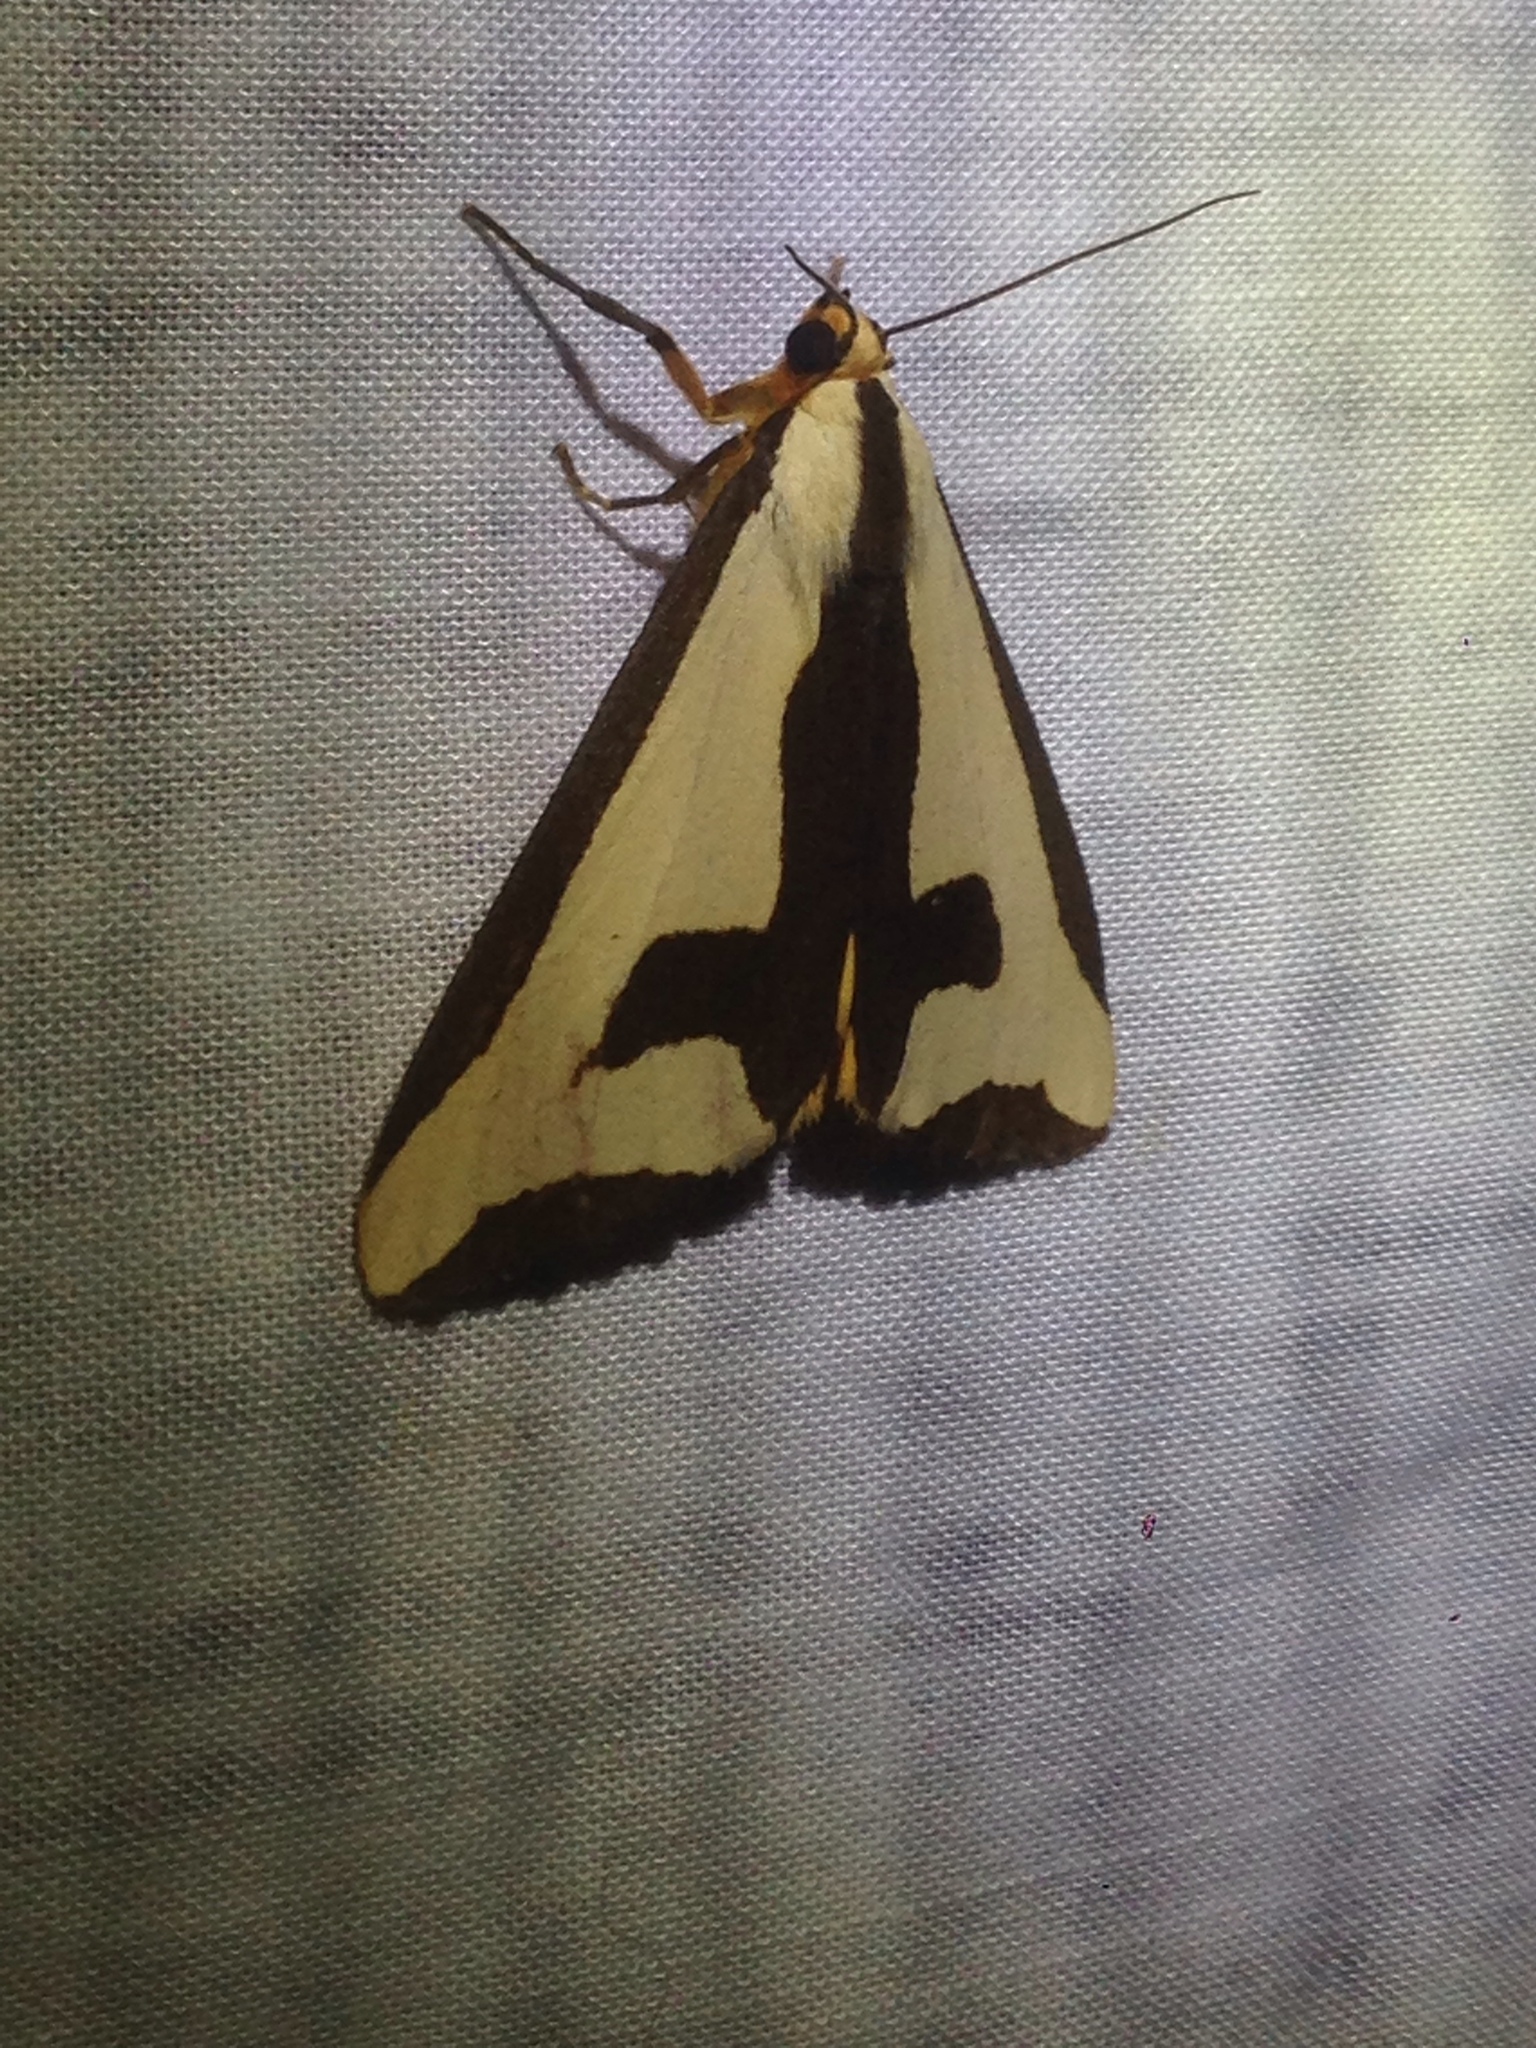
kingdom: Animalia
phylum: Arthropoda
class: Insecta
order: Lepidoptera
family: Erebidae
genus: Haploa
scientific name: Haploa clymene
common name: Clymene moth
